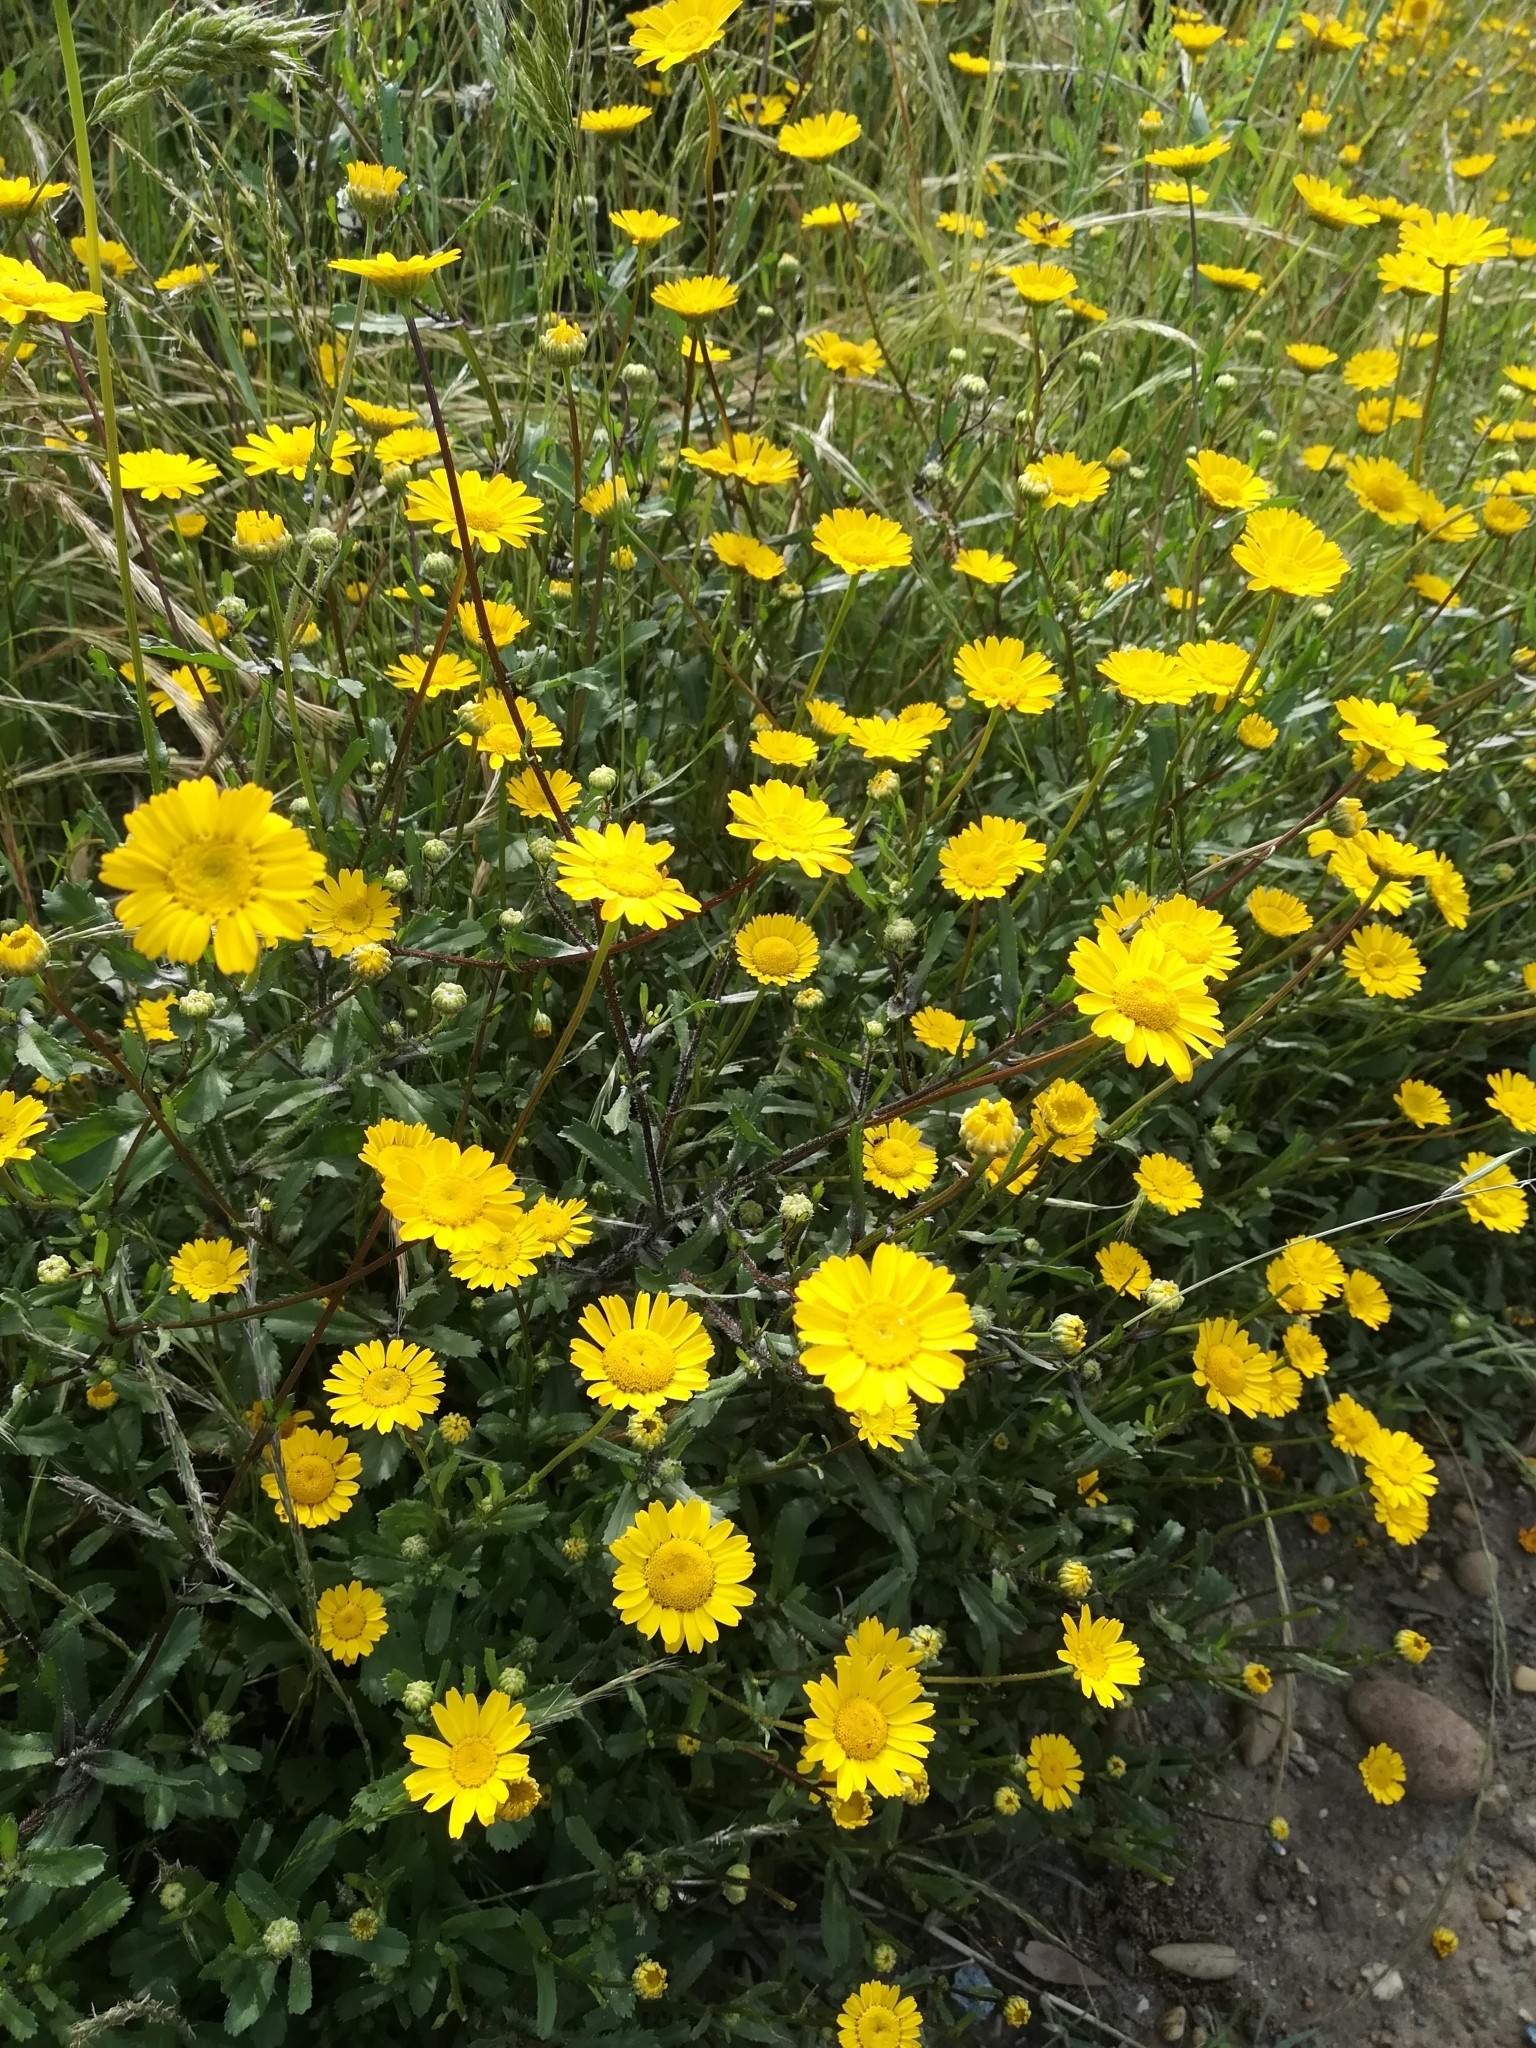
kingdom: Plantae
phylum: Tracheophyta
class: Magnoliopsida
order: Asterales
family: Asteraceae
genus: Coleostephus
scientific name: Coleostephus myconis
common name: Mediterranean marigold
